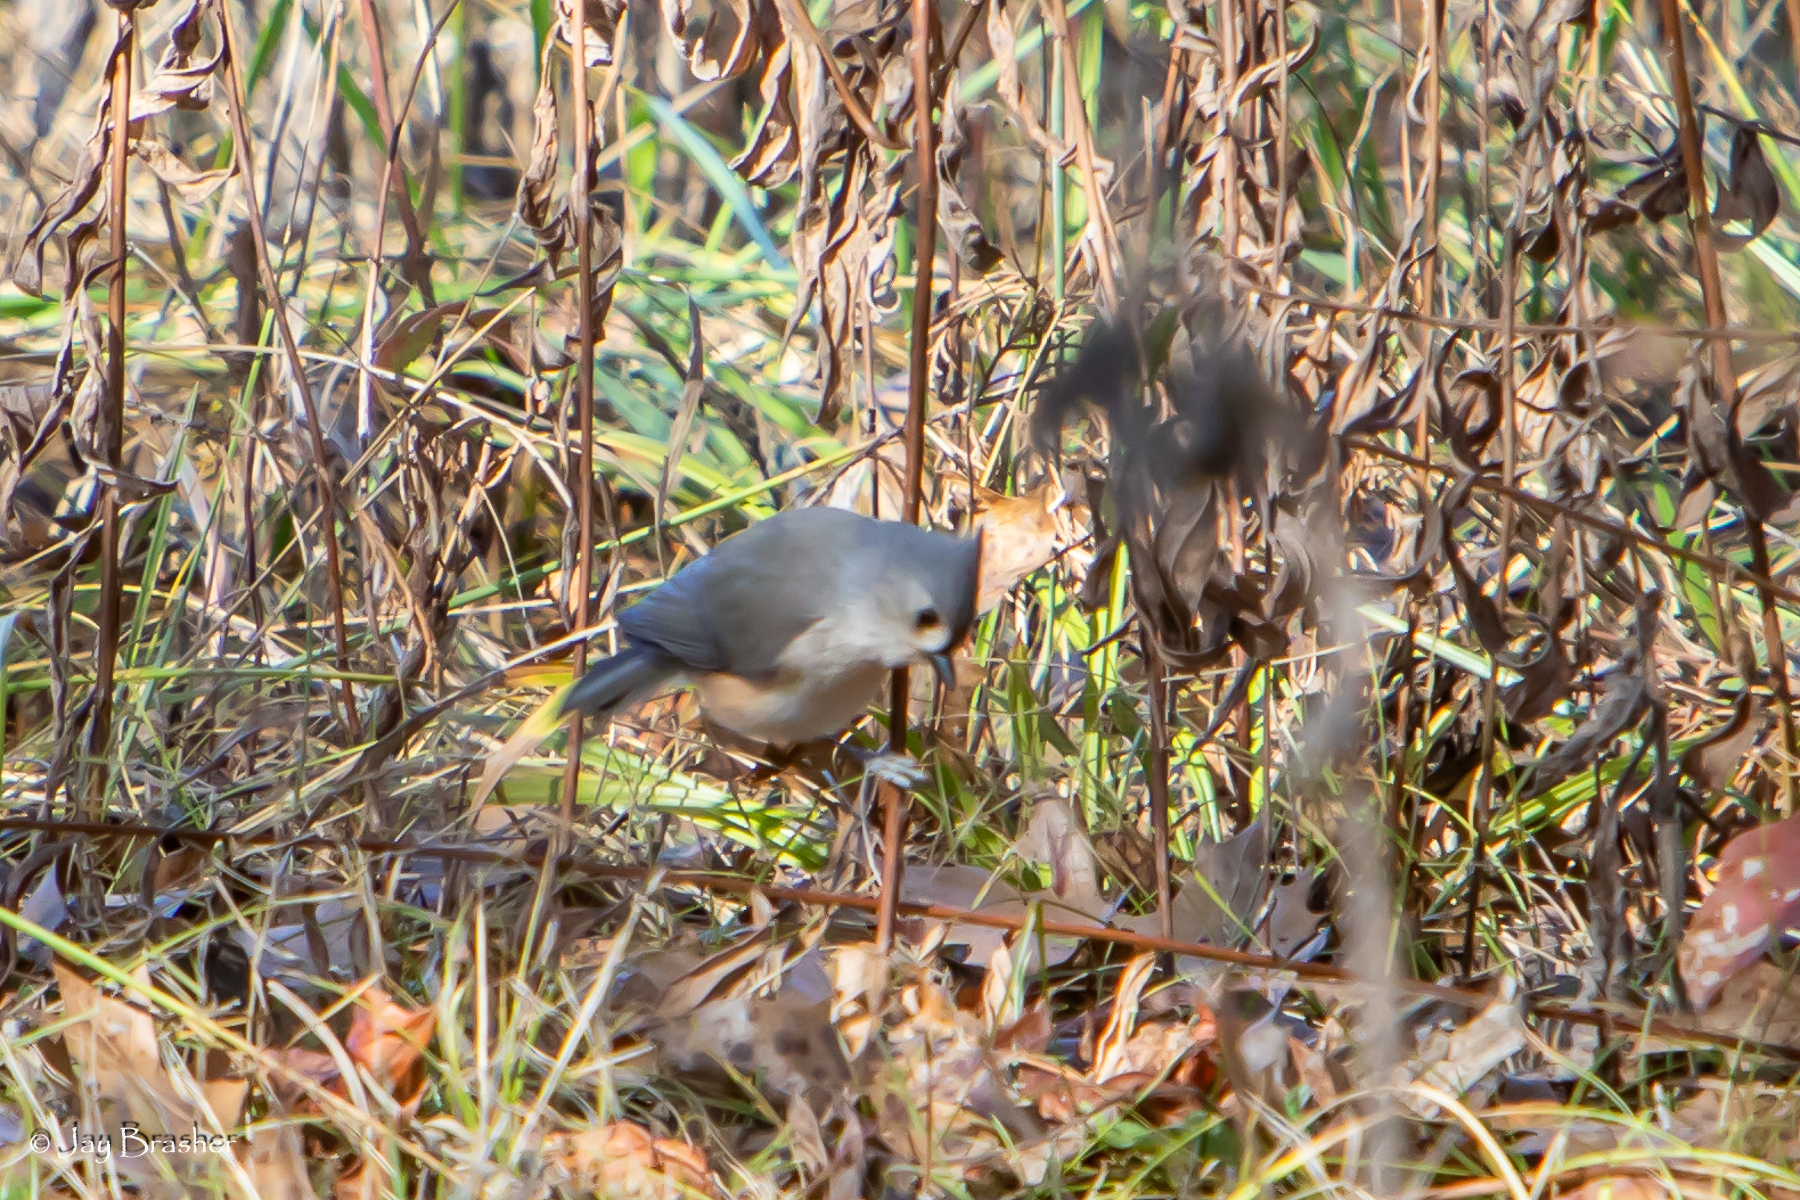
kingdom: Animalia
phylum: Chordata
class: Aves
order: Passeriformes
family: Paridae
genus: Baeolophus
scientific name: Baeolophus bicolor
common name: Tufted titmouse
